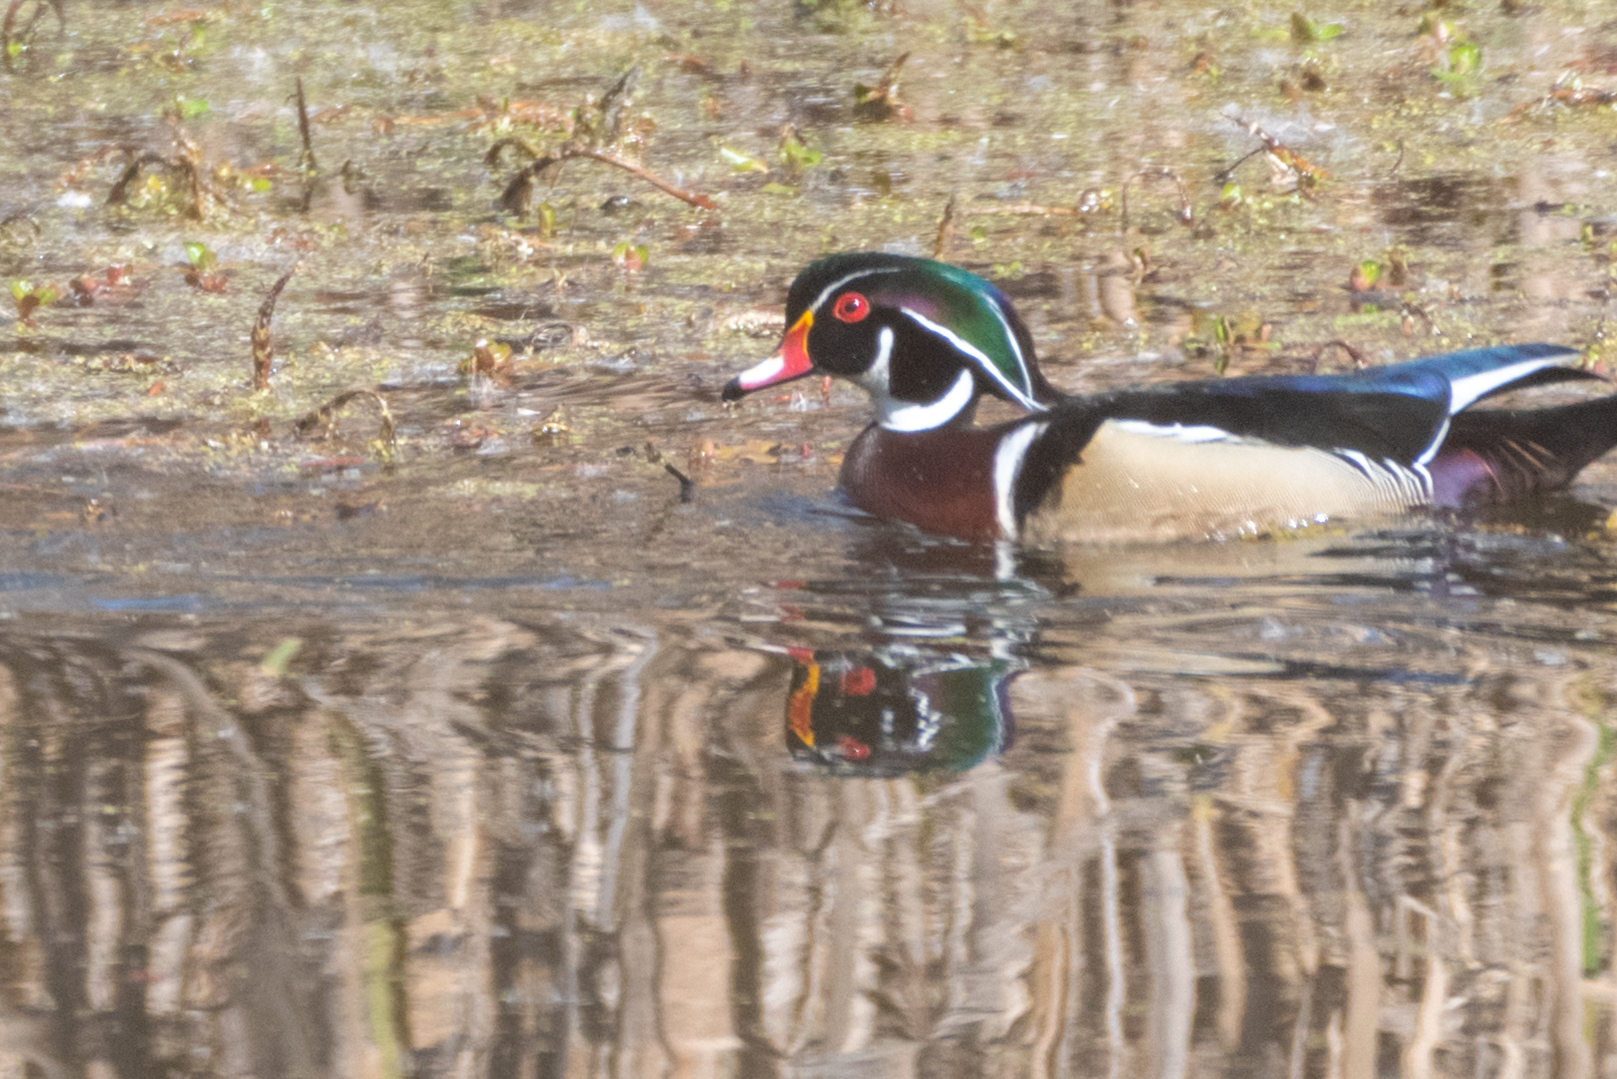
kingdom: Animalia
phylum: Chordata
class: Aves
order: Anseriformes
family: Anatidae
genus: Aix
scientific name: Aix sponsa
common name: Wood duck
